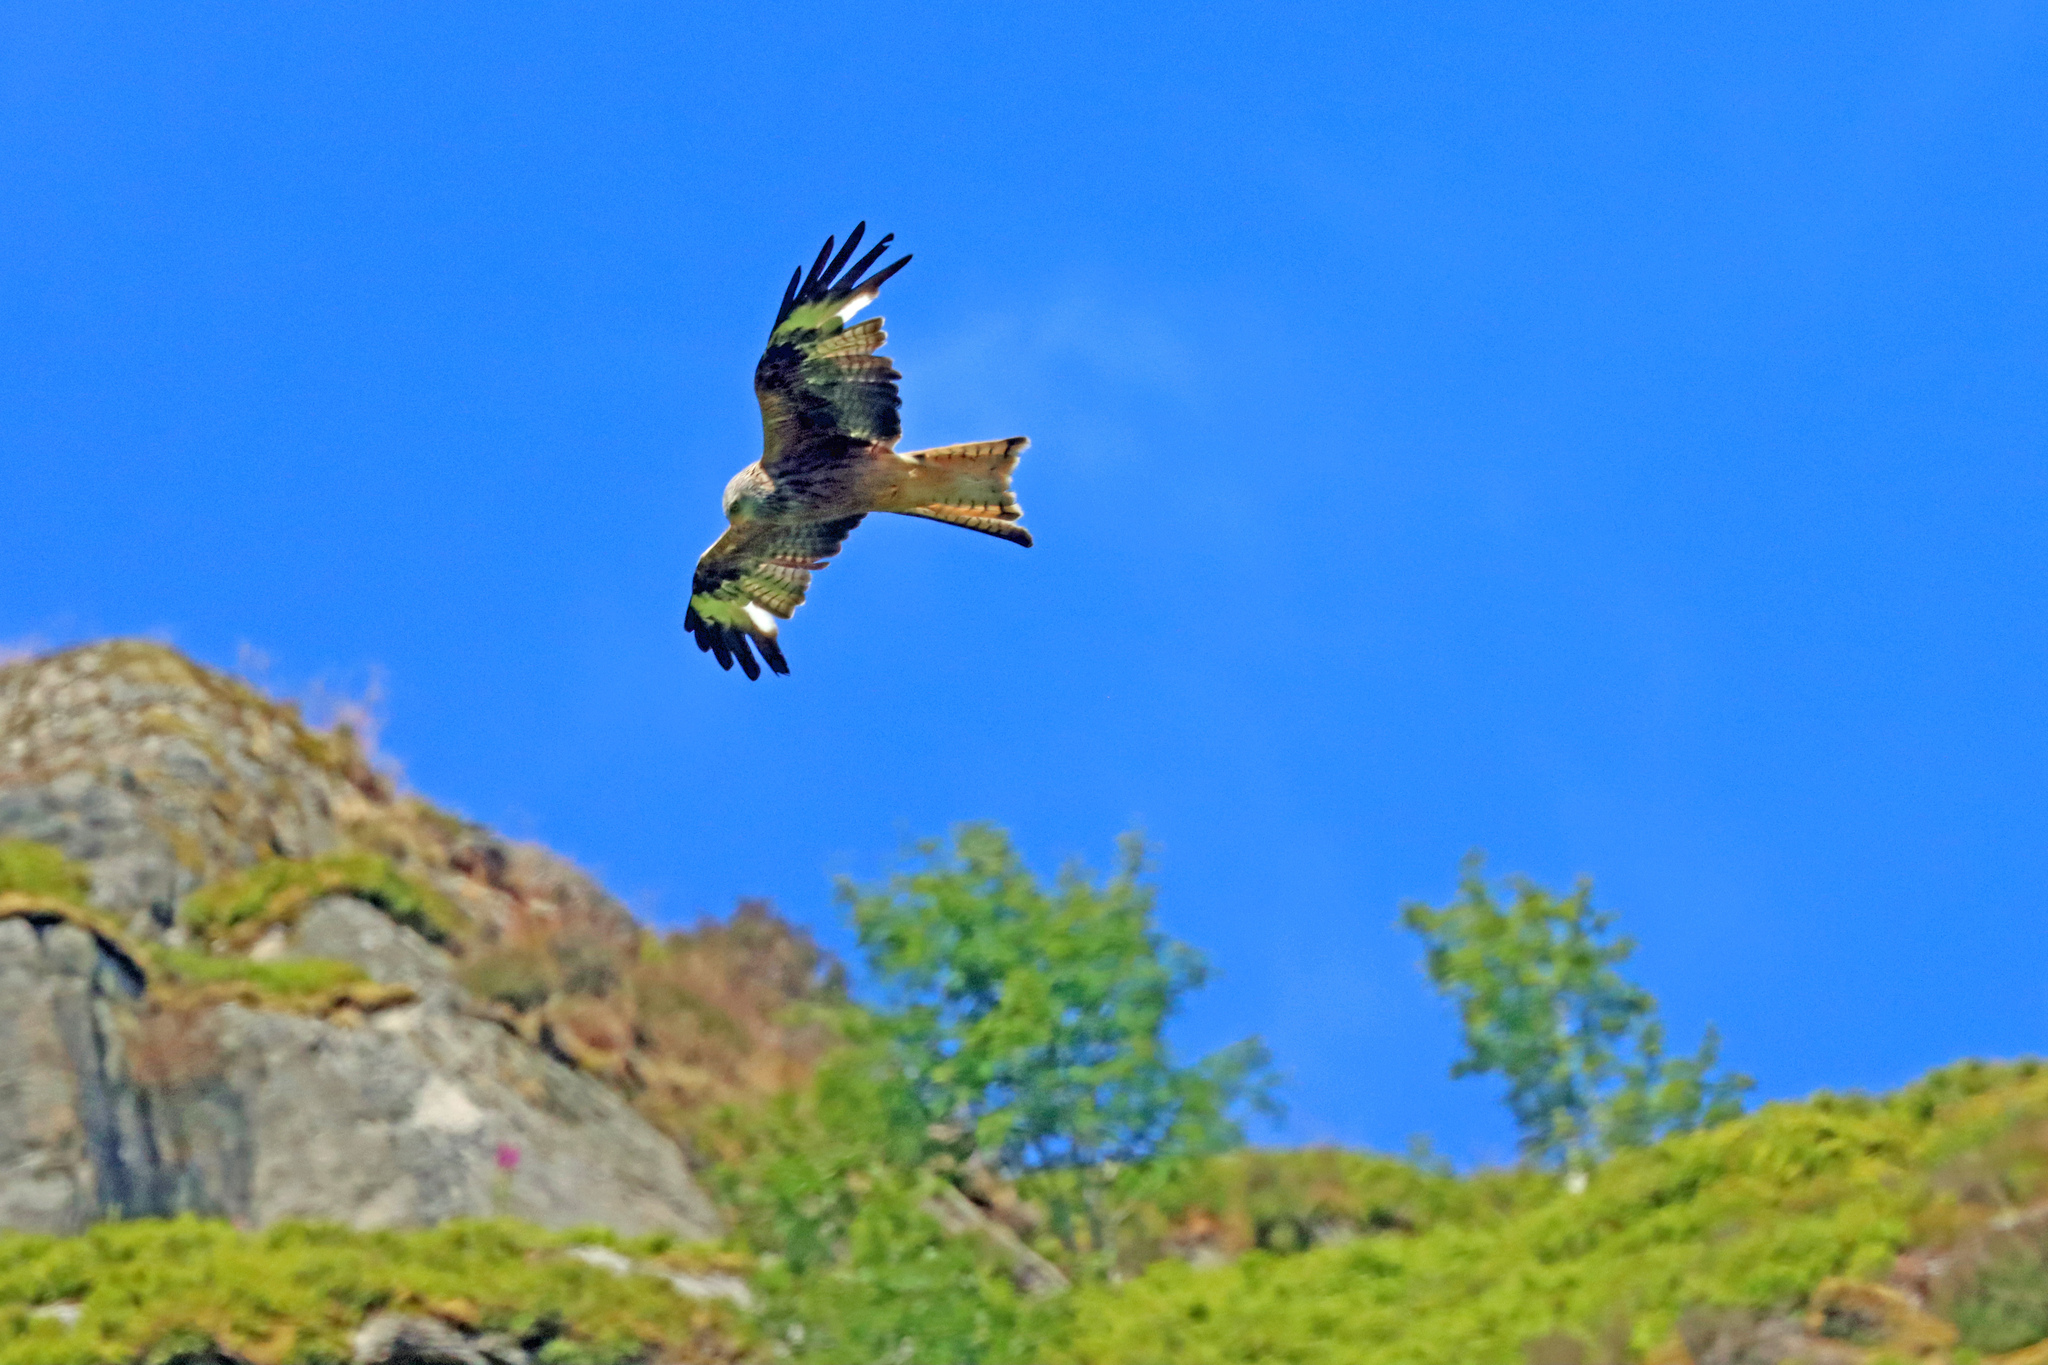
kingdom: Animalia
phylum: Chordata
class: Aves
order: Accipitriformes
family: Accipitridae
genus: Milvus
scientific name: Milvus milvus
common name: Red kite
